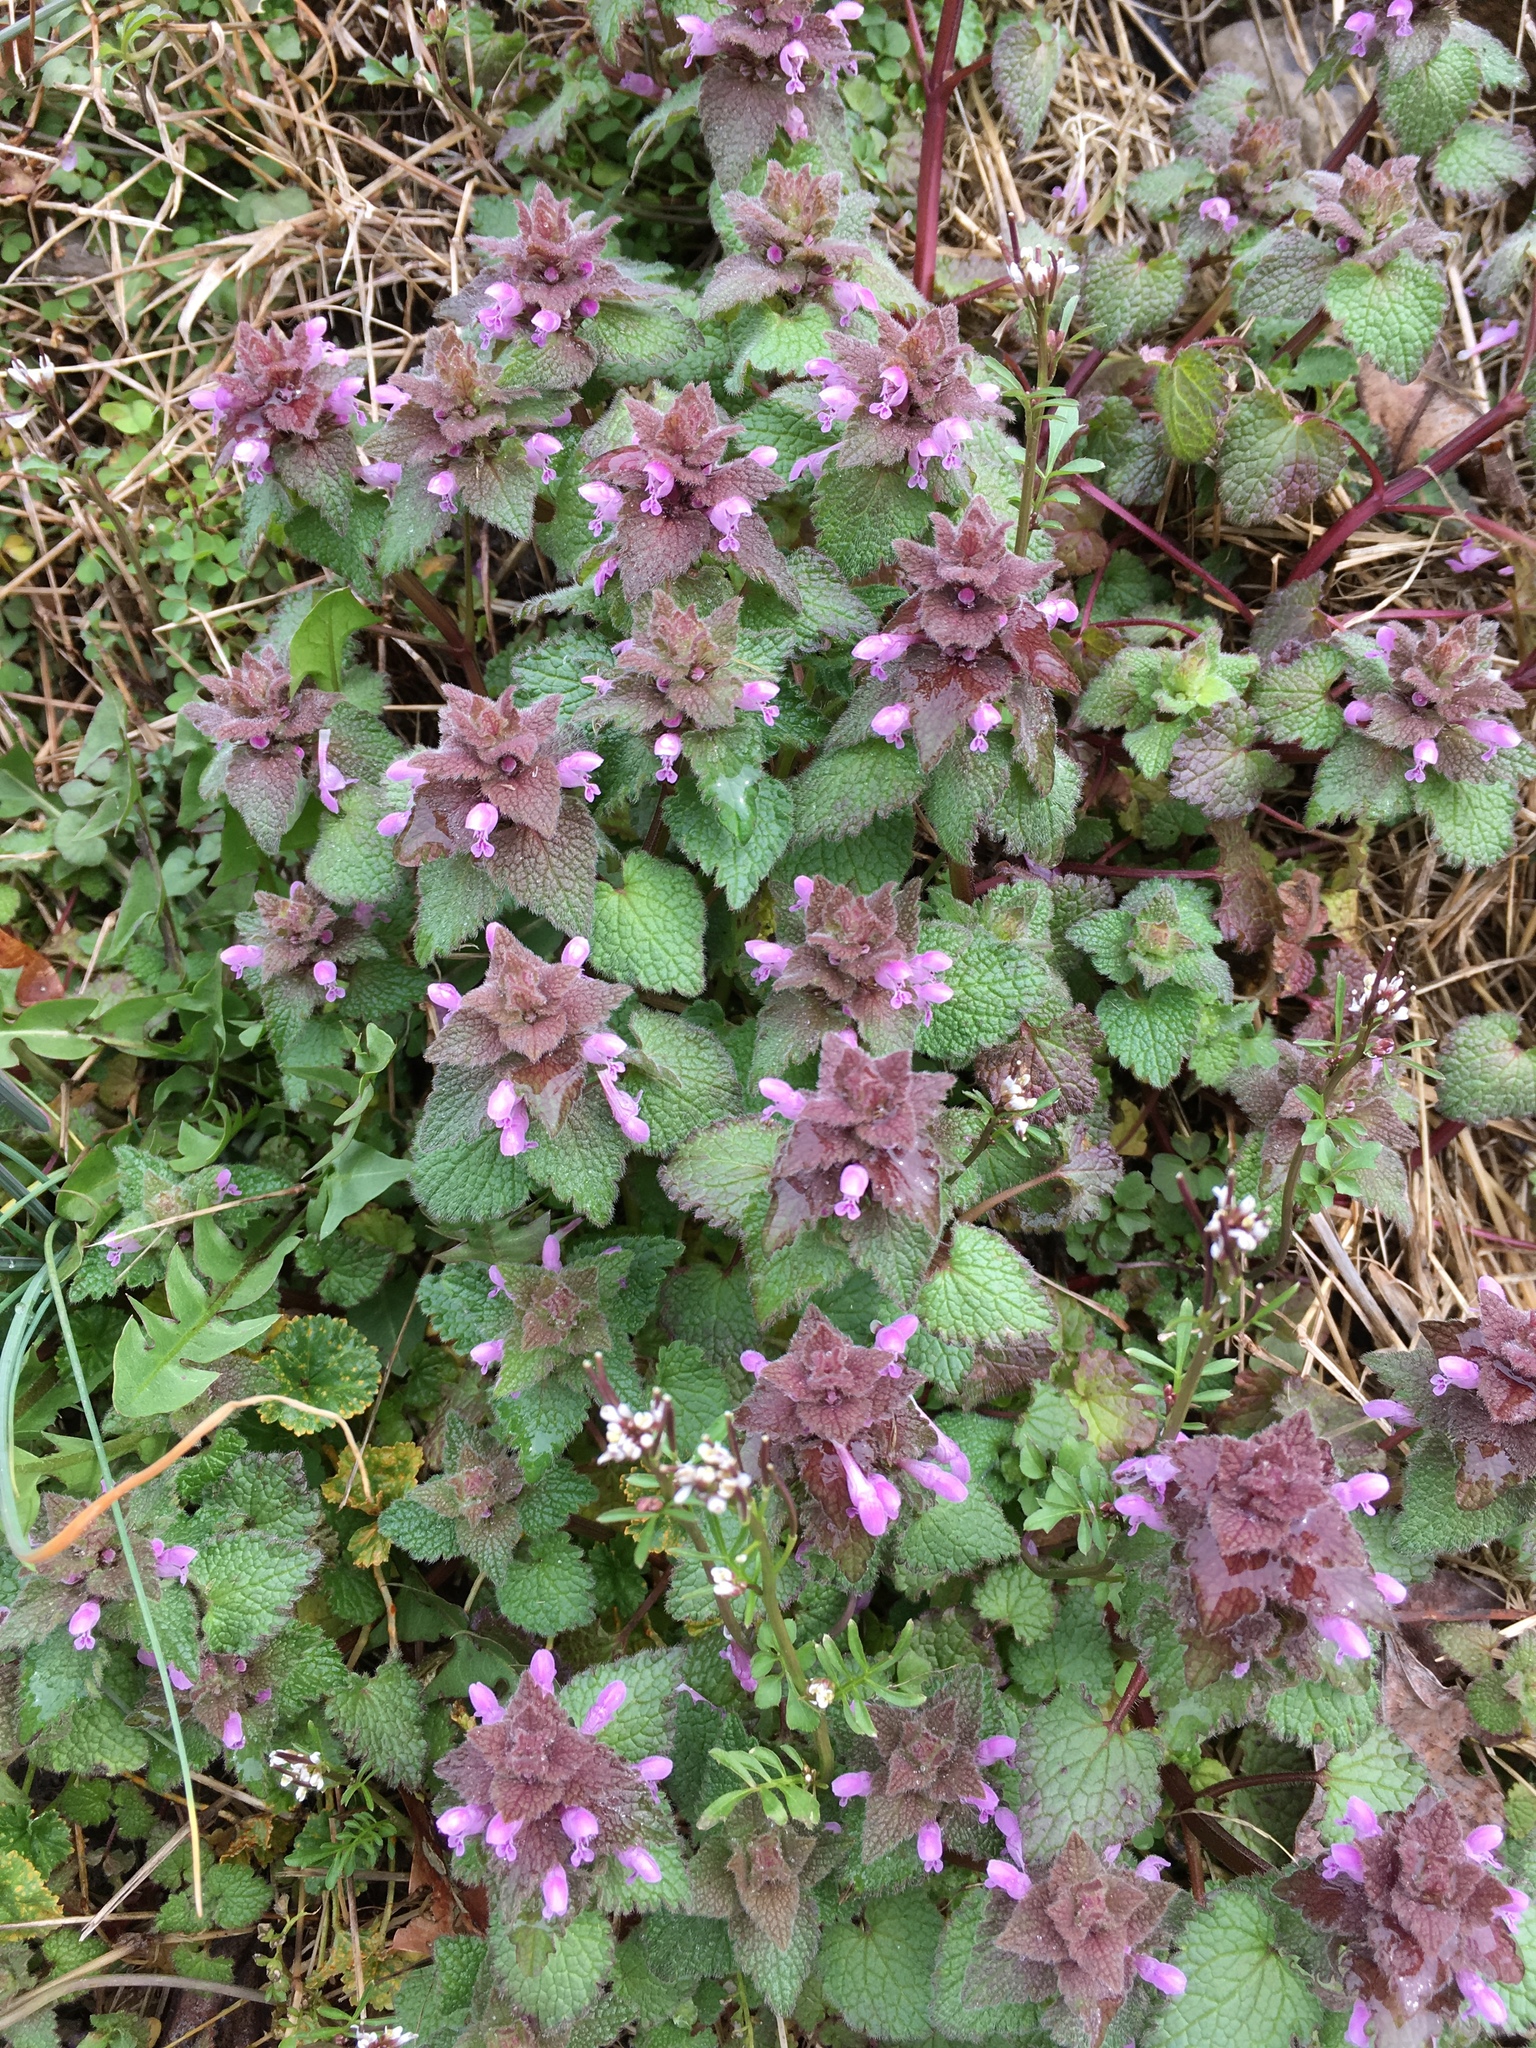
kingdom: Plantae
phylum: Tracheophyta
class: Magnoliopsida
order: Lamiales
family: Lamiaceae
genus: Lamium
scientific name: Lamium purpureum
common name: Red dead-nettle
